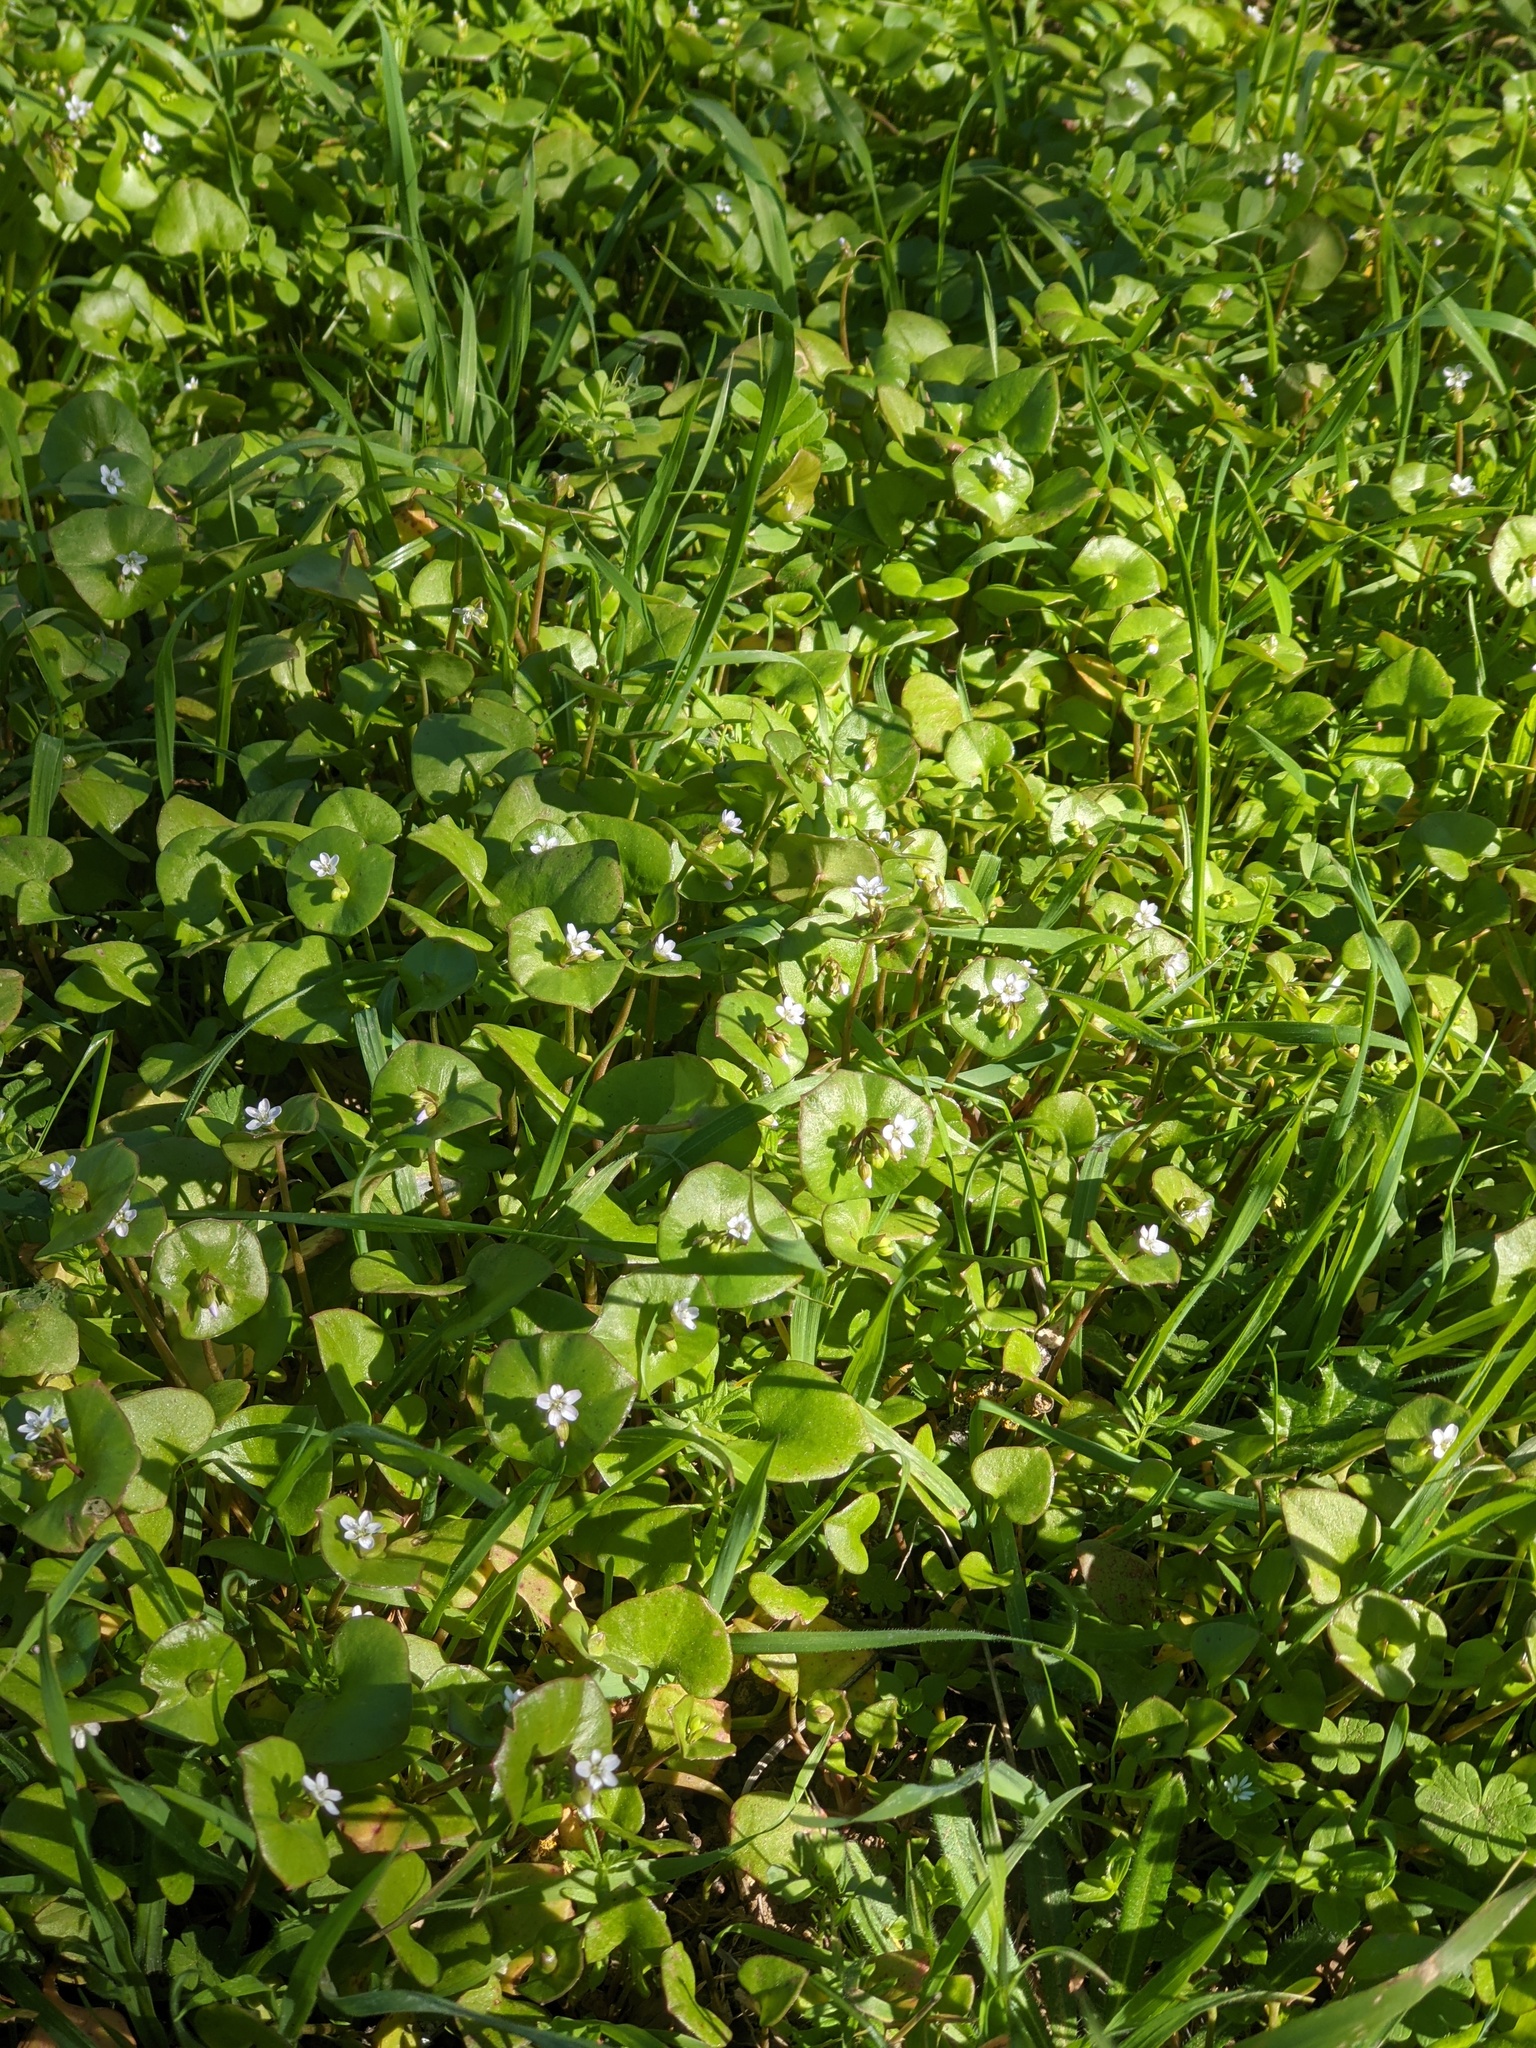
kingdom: Plantae
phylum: Tracheophyta
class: Magnoliopsida
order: Caryophyllales
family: Montiaceae
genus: Claytonia
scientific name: Claytonia perfoliata
